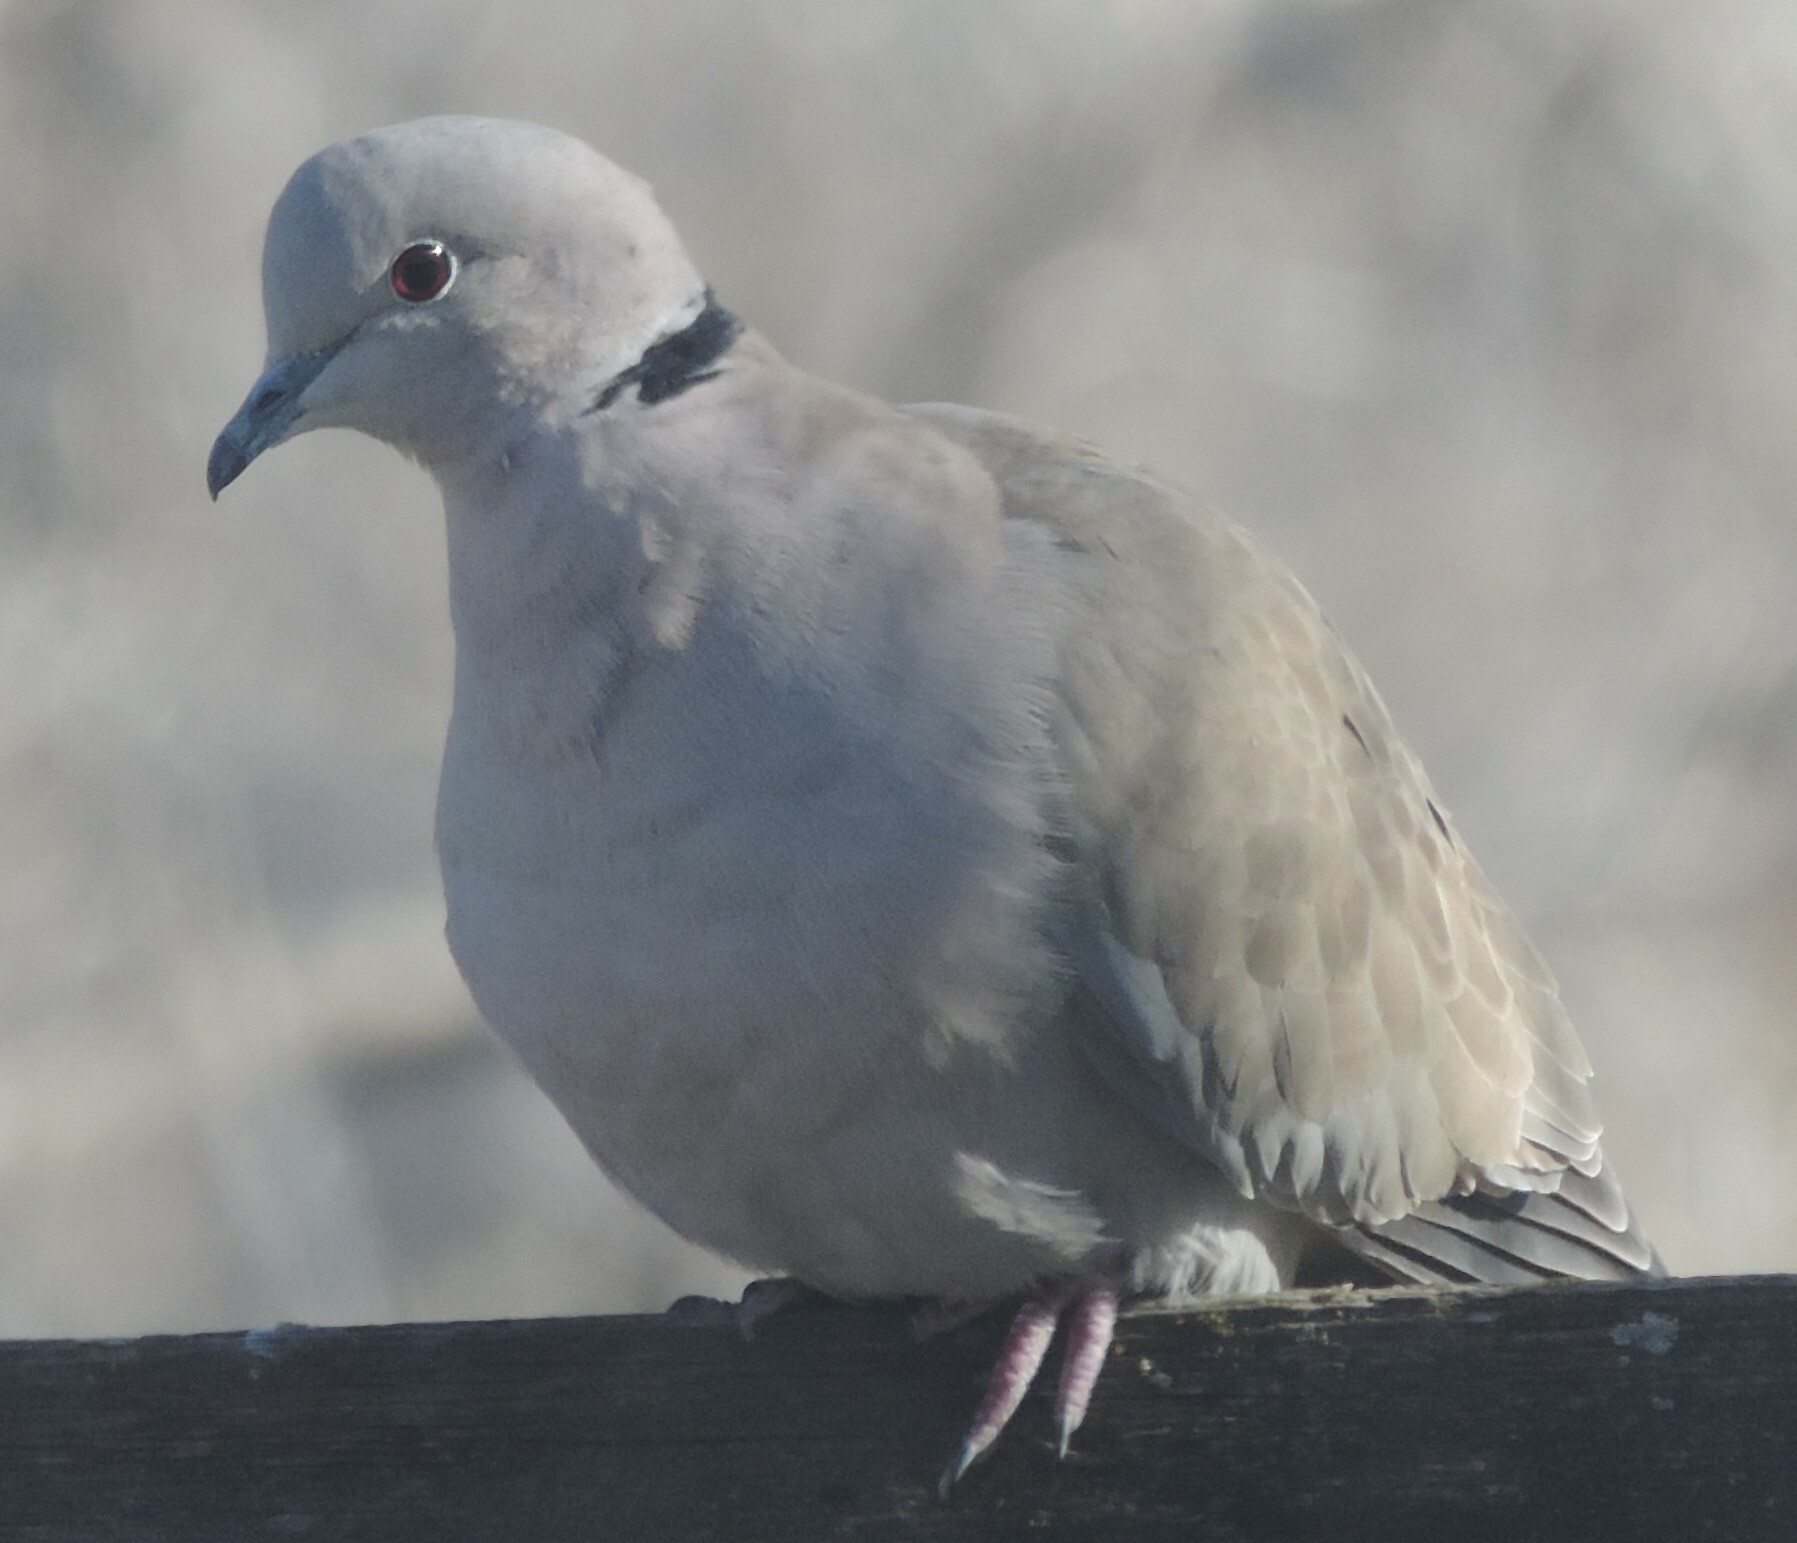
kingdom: Animalia
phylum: Chordata
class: Aves
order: Columbiformes
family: Columbidae
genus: Streptopelia
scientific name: Streptopelia decaocto
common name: Eurasian collared dove
